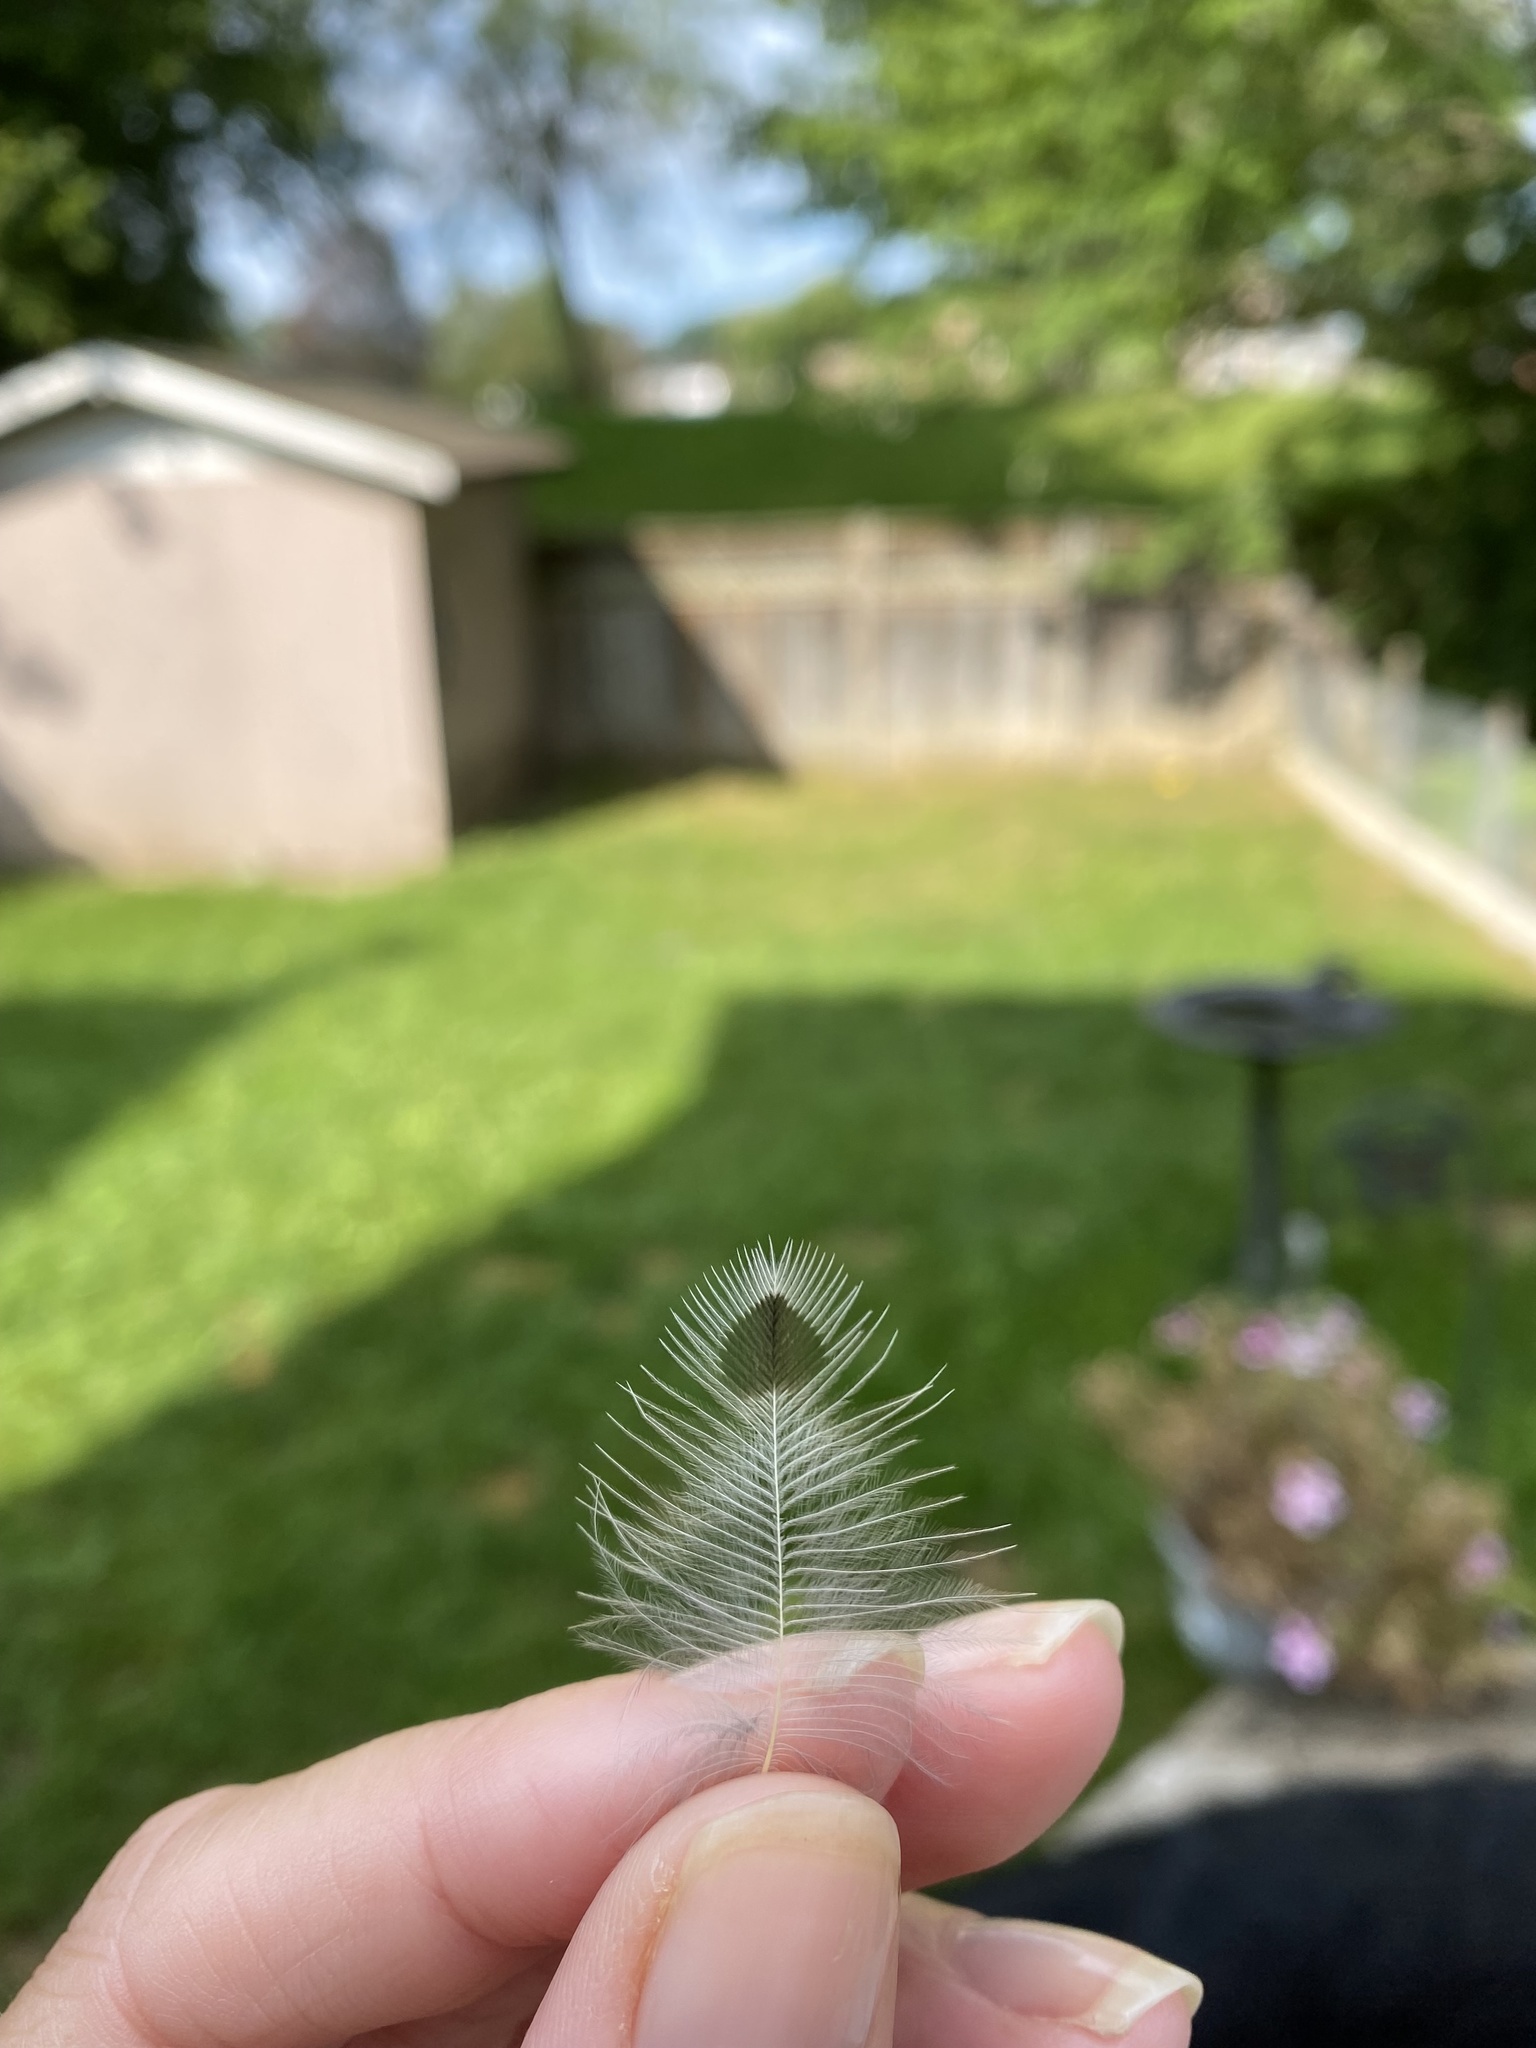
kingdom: Animalia
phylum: Chordata
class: Aves
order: Piciformes
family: Picidae
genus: Colaptes
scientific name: Colaptes auratus
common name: Northern flicker
